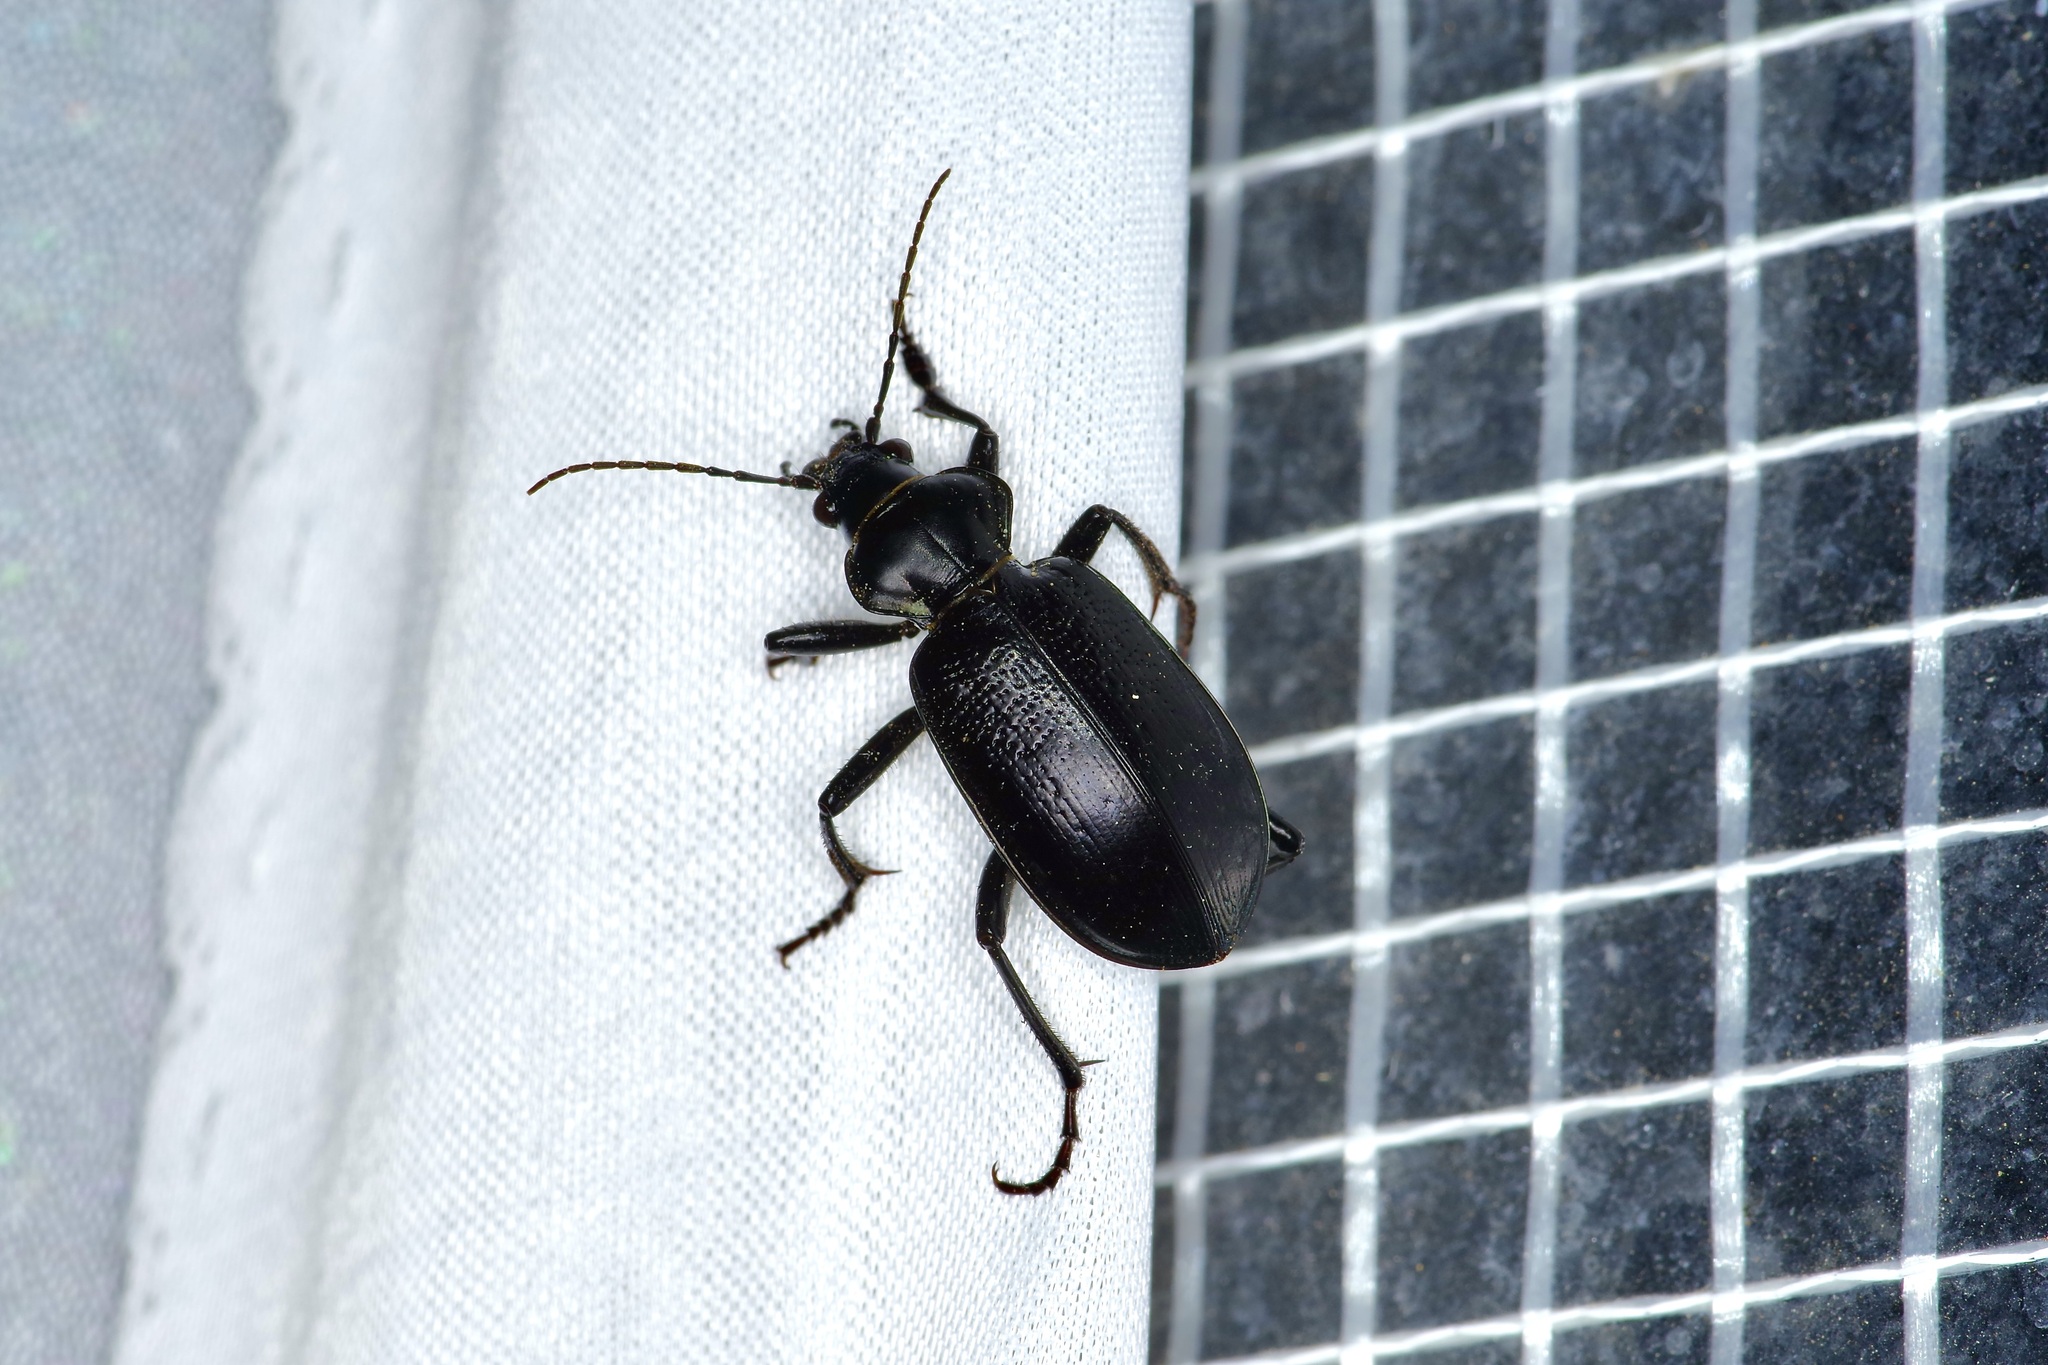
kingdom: Animalia
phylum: Arthropoda
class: Insecta
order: Coleoptera
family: Carabidae
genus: Calosoma
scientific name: Calosoma marginale
